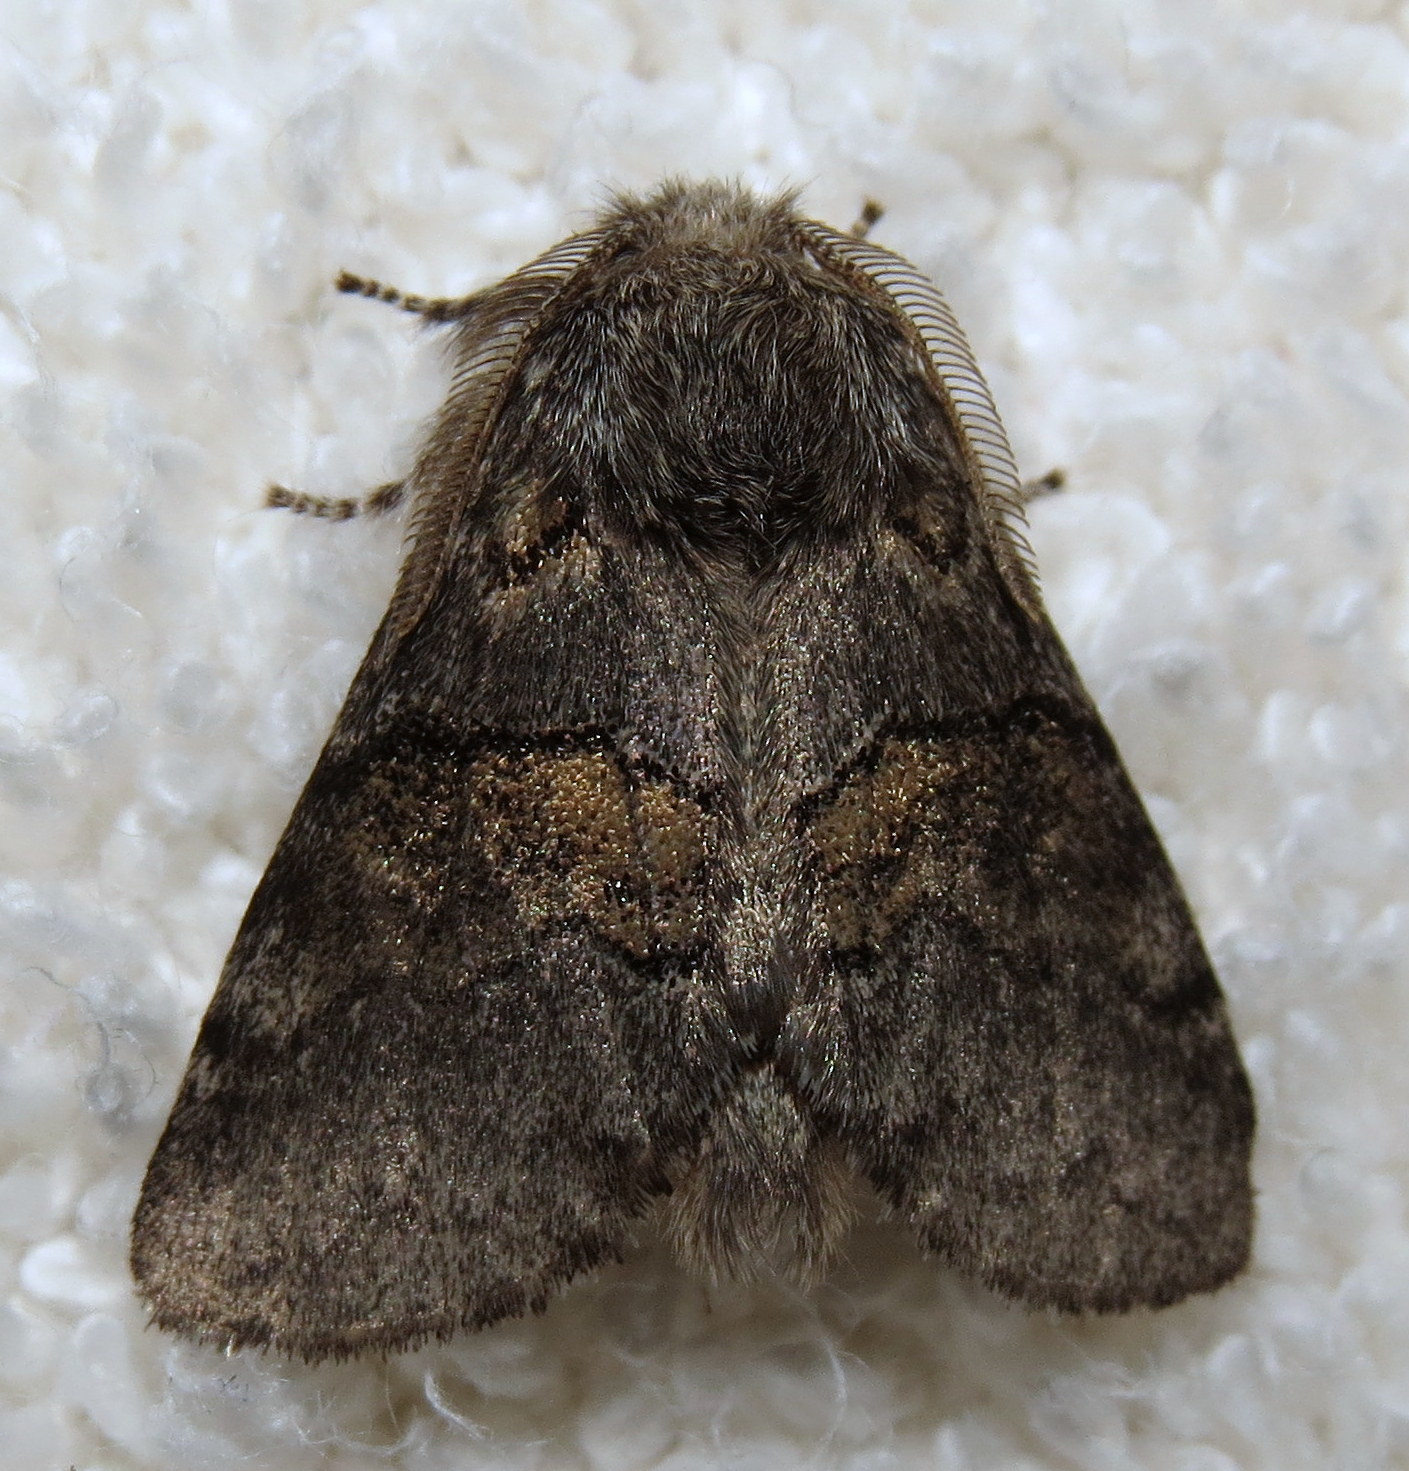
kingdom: Animalia
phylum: Arthropoda
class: Insecta
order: Lepidoptera
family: Notodontidae
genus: Gluphisia
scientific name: Gluphisia septentrionis
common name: Common gluphisia
